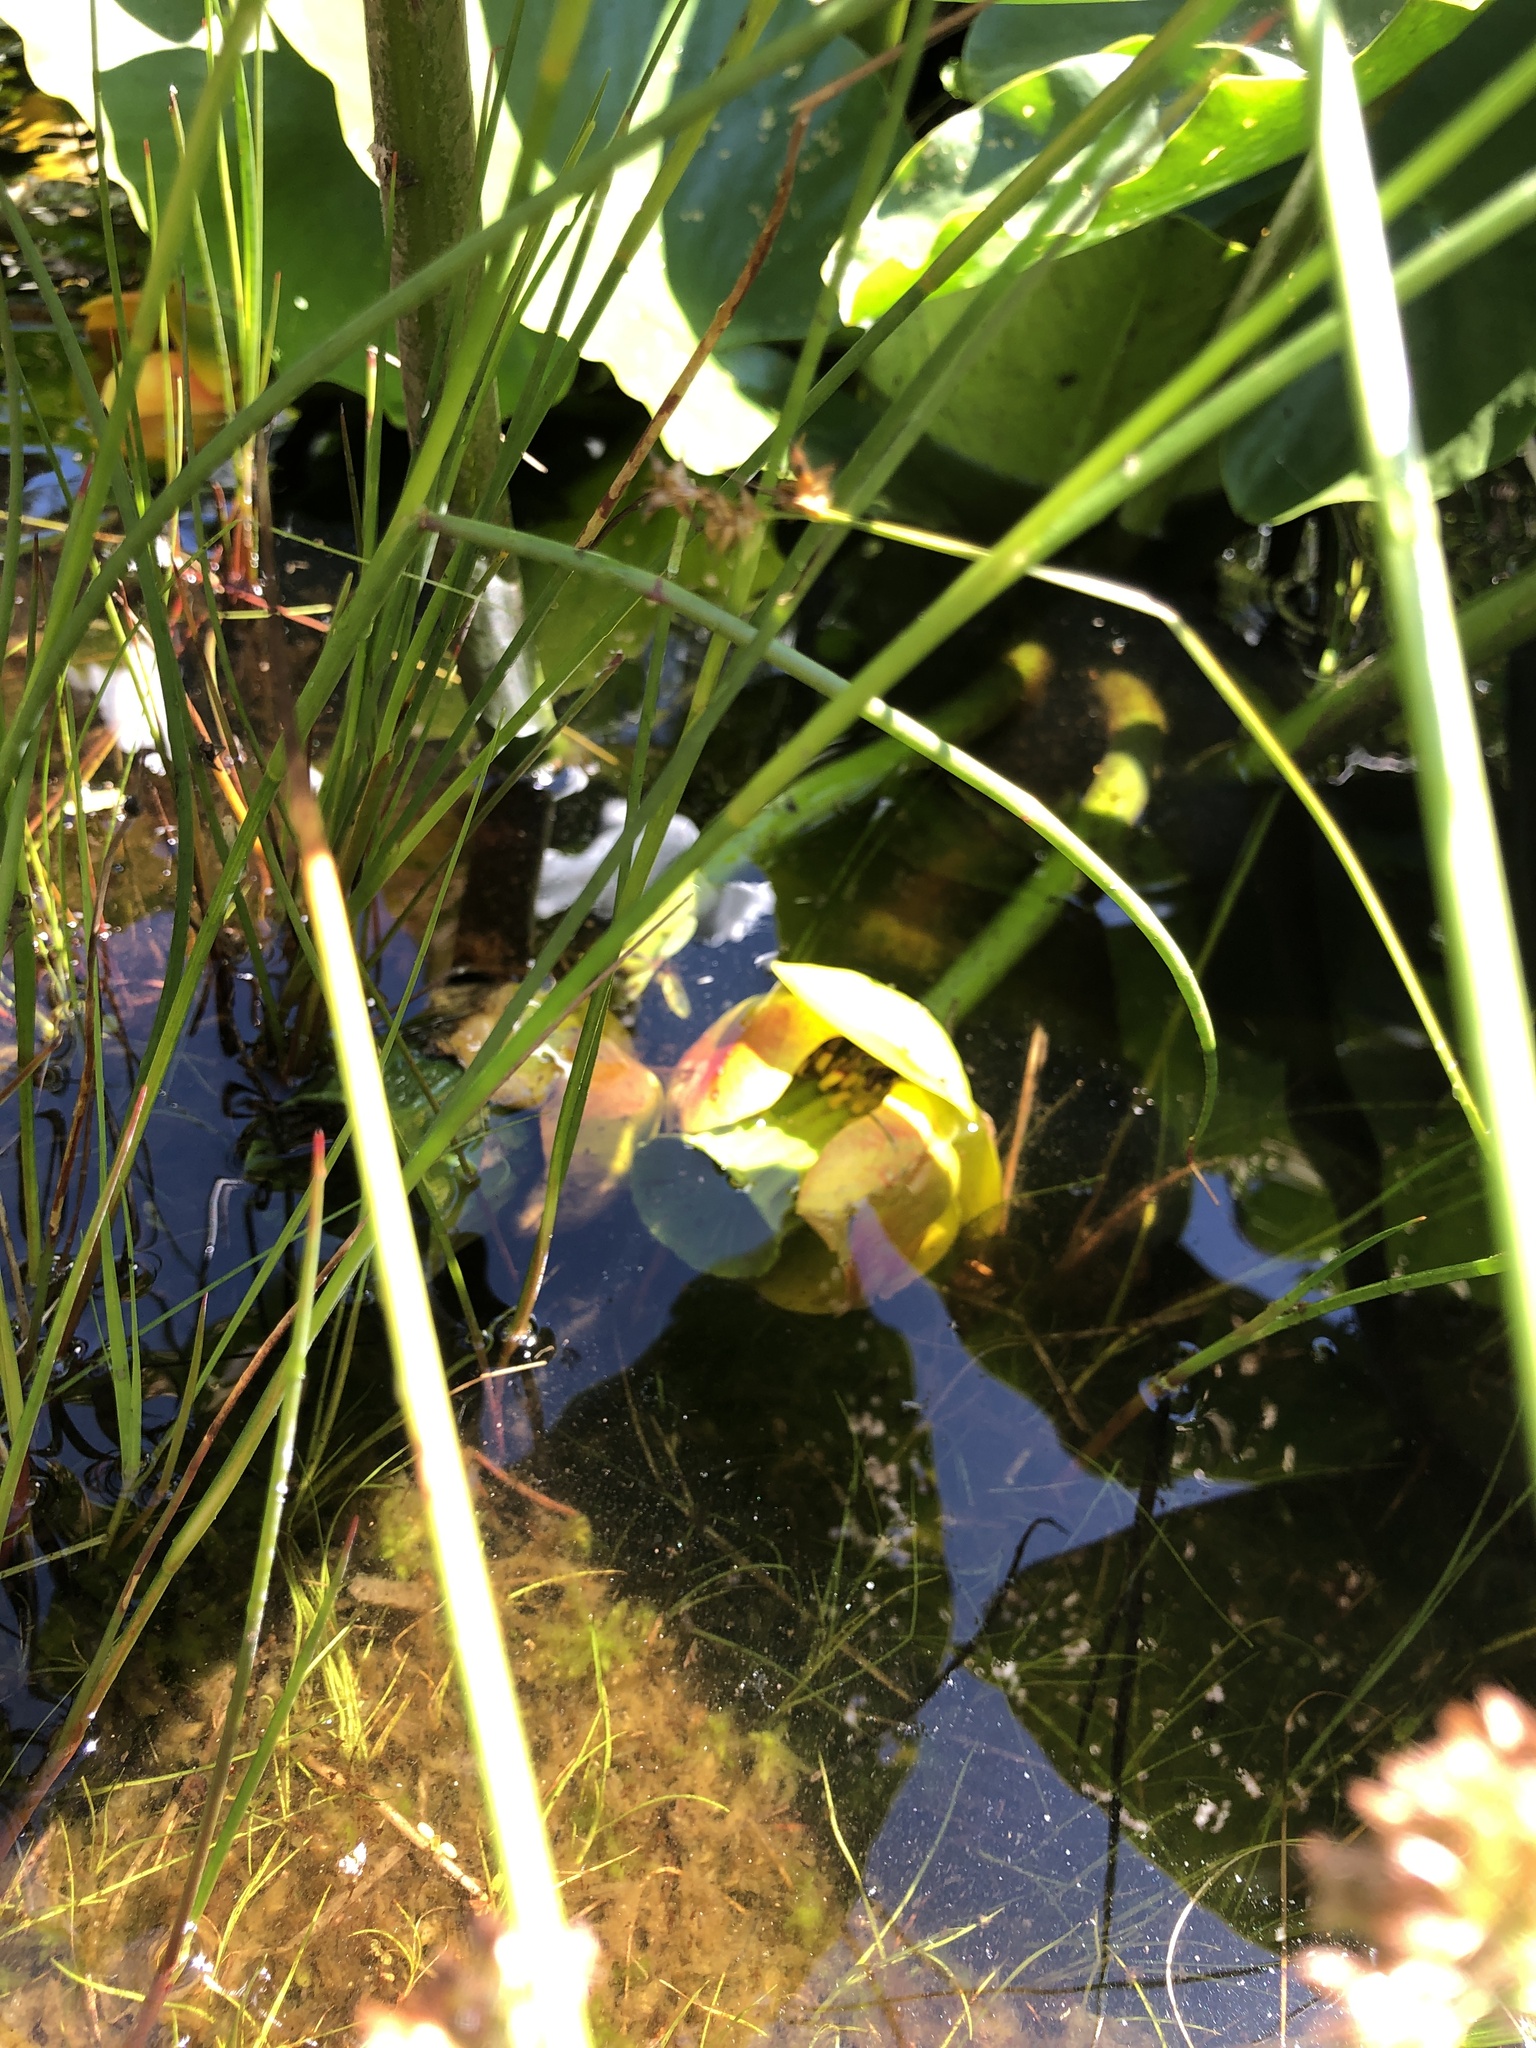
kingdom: Plantae
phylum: Tracheophyta
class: Magnoliopsida
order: Nymphaeales
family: Nymphaeaceae
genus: Nuphar
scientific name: Nuphar polysepala
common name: Rocky mountain cow-lily
